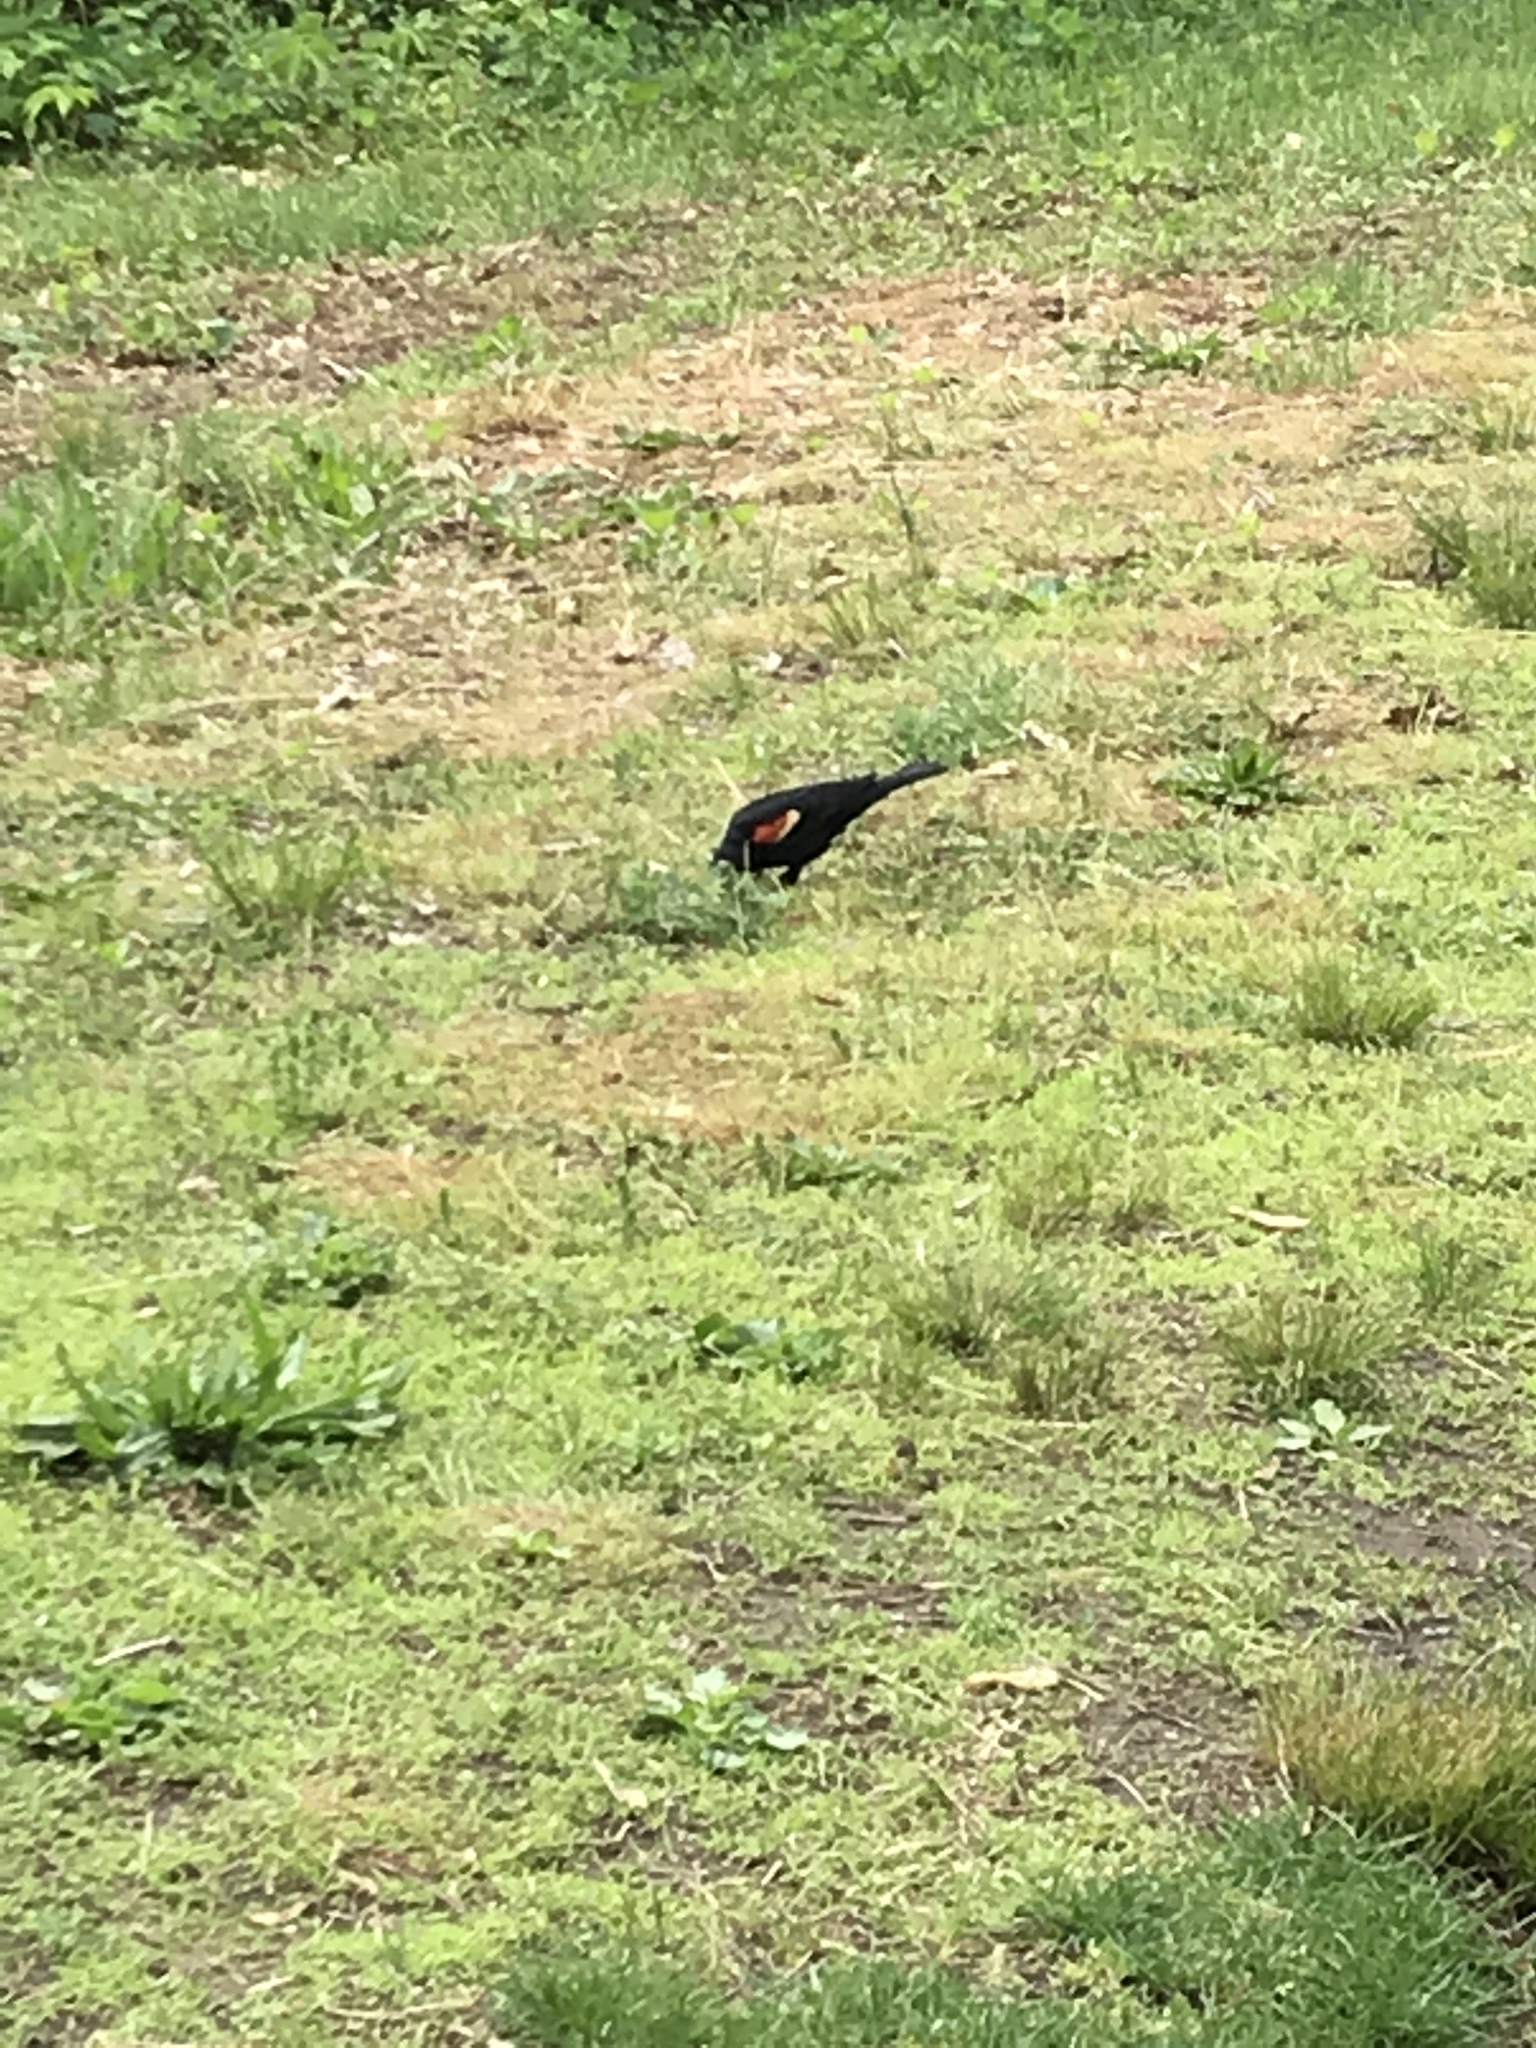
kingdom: Animalia
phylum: Chordata
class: Aves
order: Passeriformes
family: Icteridae
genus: Agelaius
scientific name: Agelaius phoeniceus
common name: Red-winged blackbird
